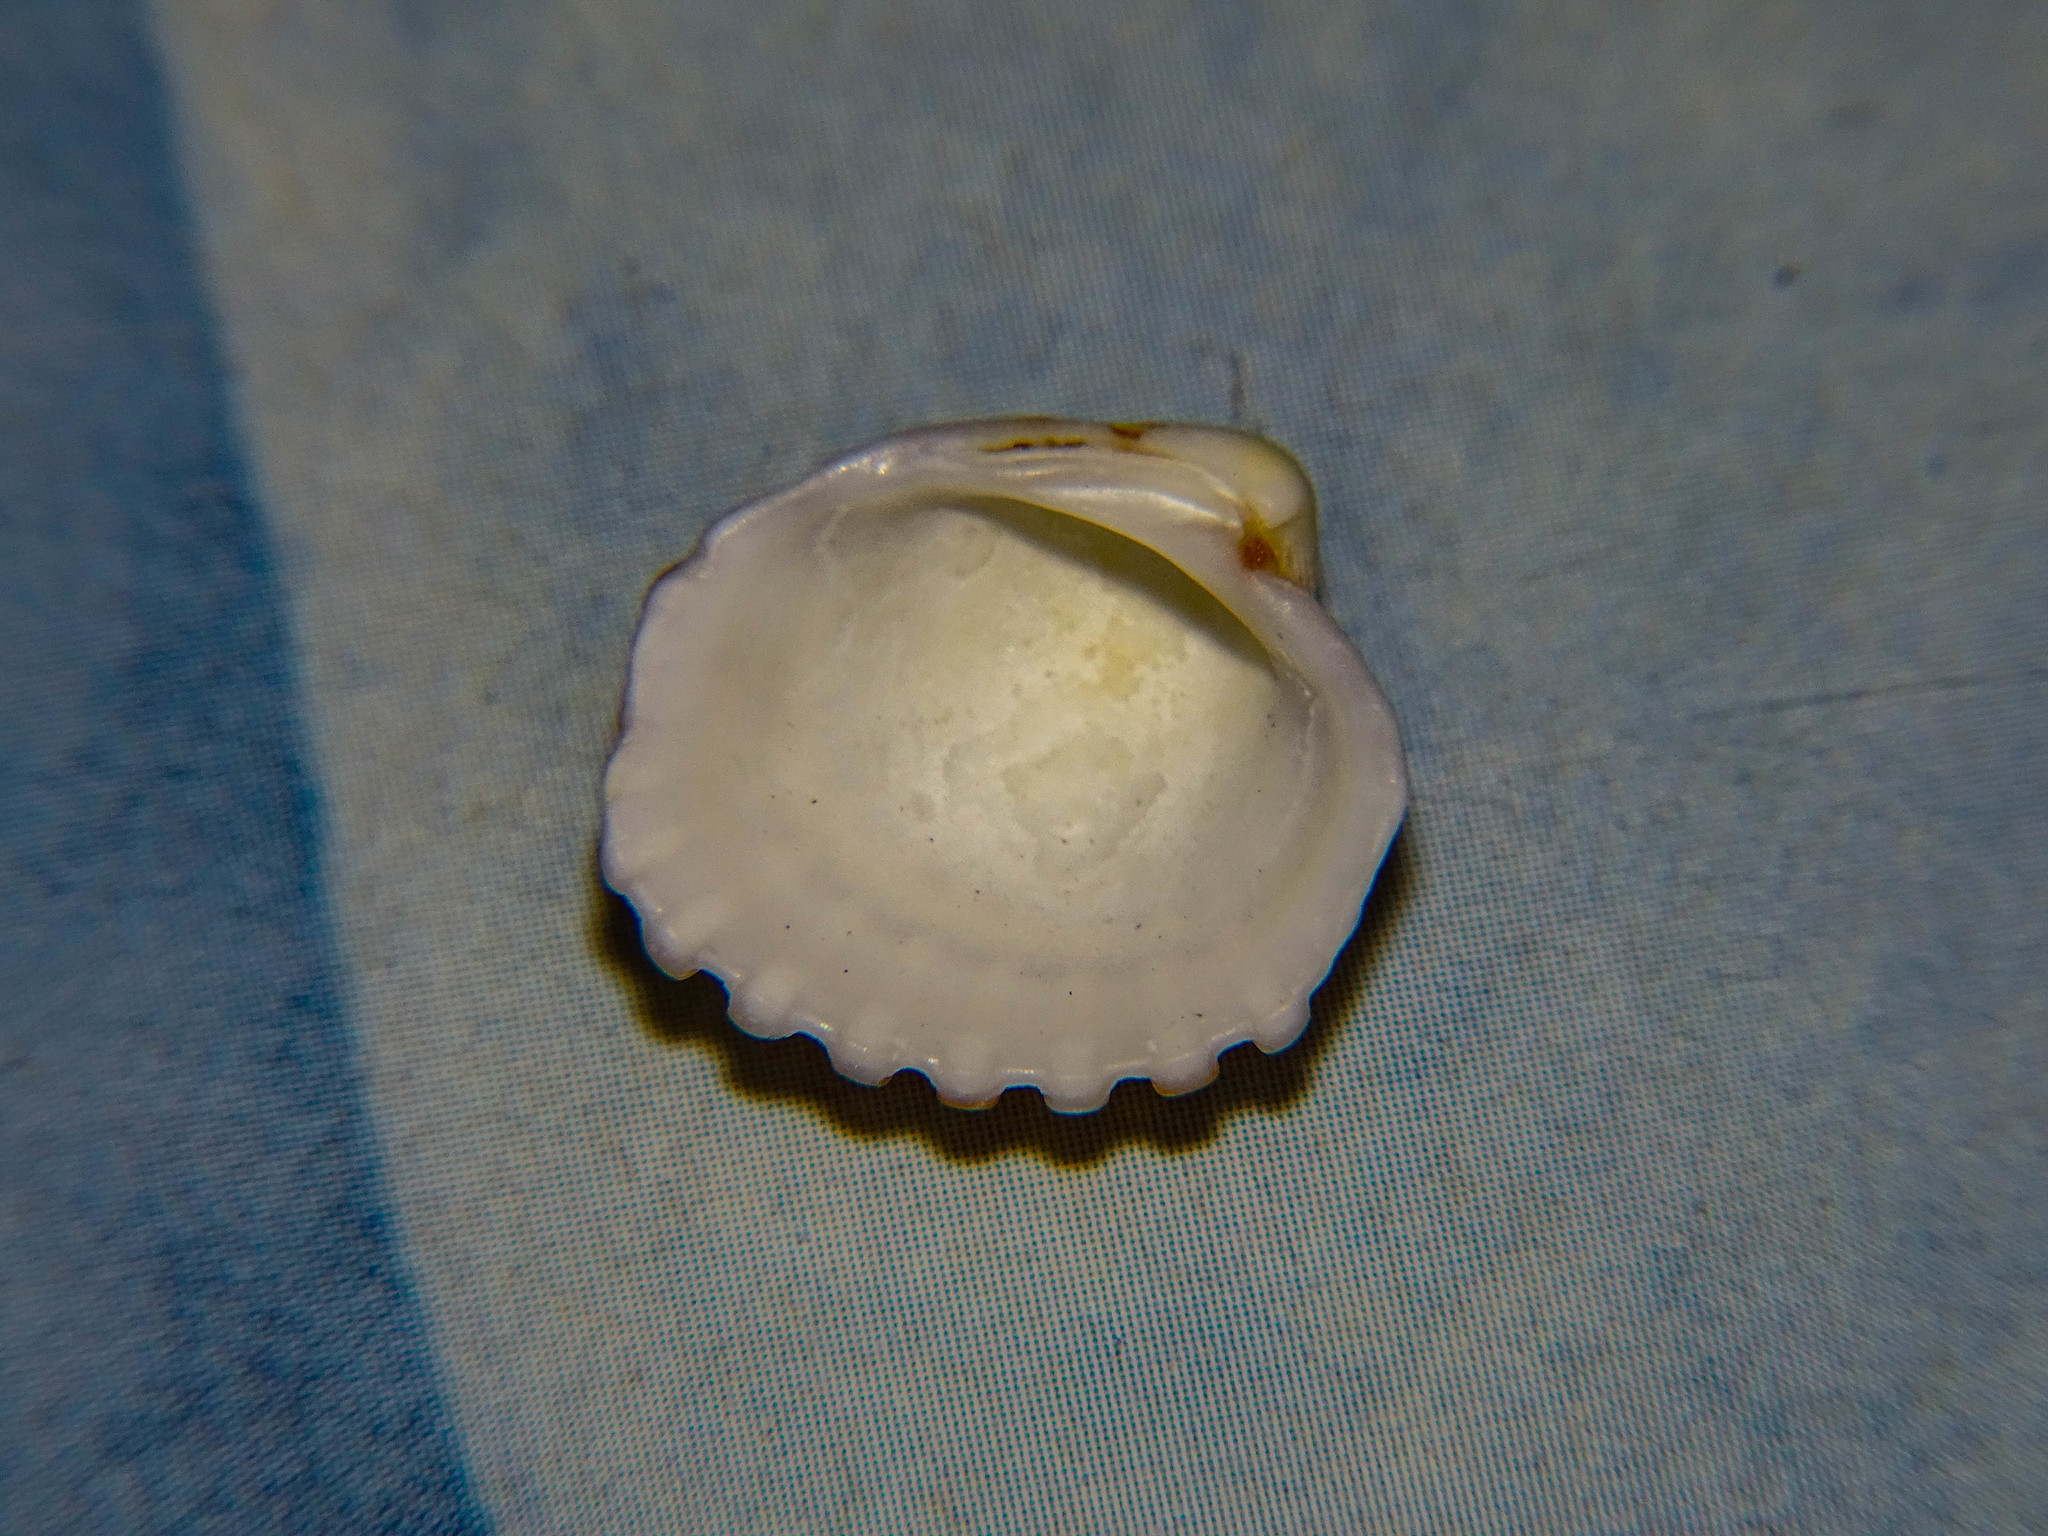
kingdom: Animalia
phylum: Mollusca
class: Bivalvia
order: Carditida
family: Carditidae
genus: Cardites
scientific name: Cardites antiquatus
